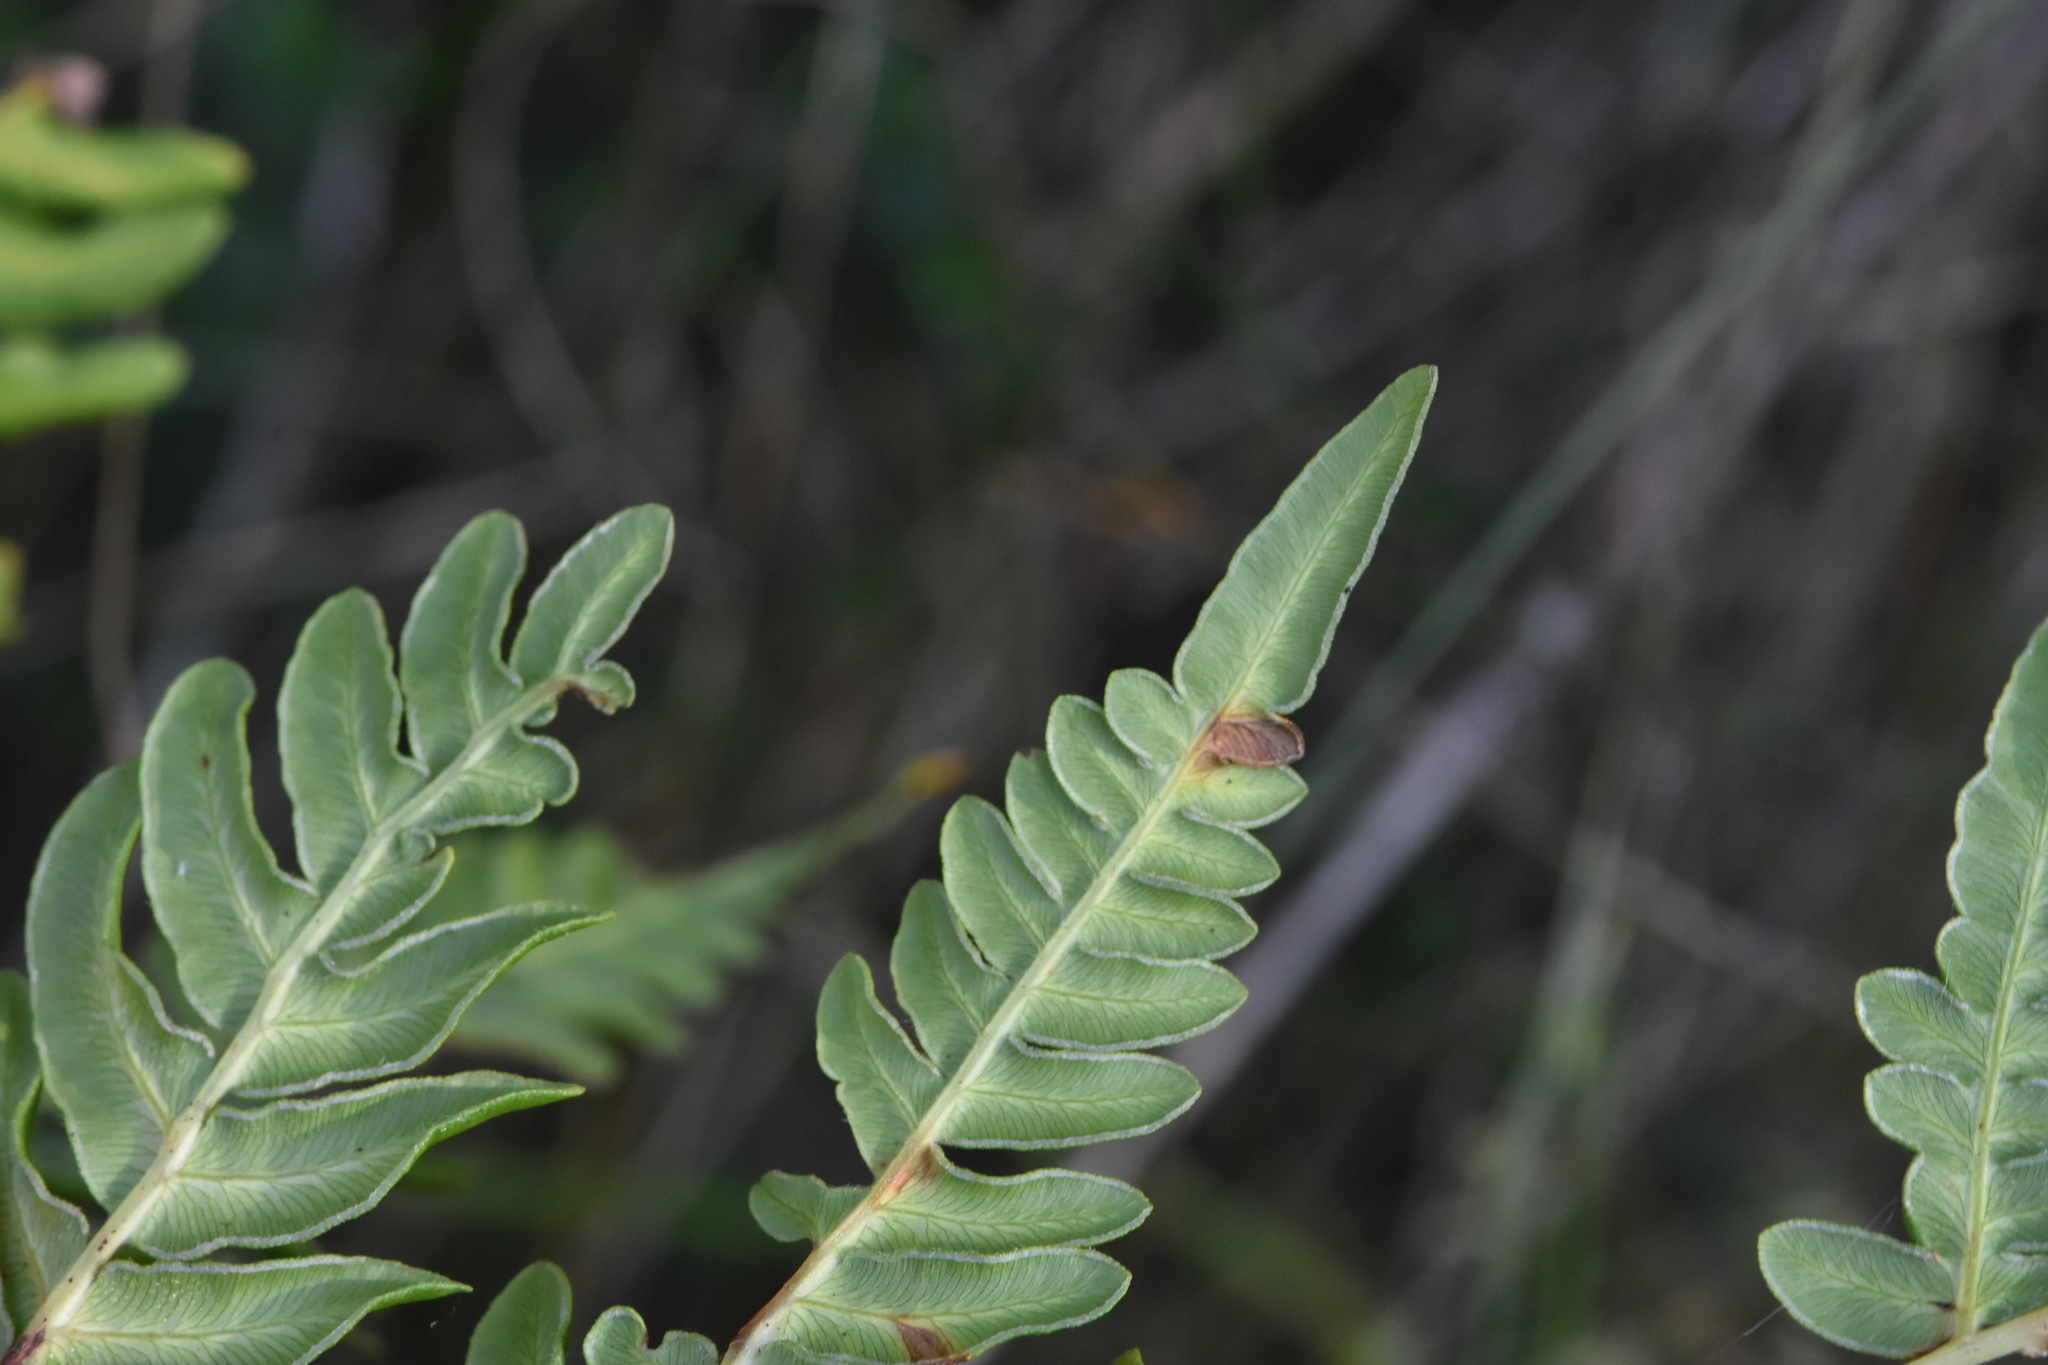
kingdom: Plantae
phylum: Tracheophyta
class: Polypodiopsida
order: Polypodiales
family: Dennstaedtiaceae
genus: Pteridium
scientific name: Pteridium aquilinum
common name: Bracken
